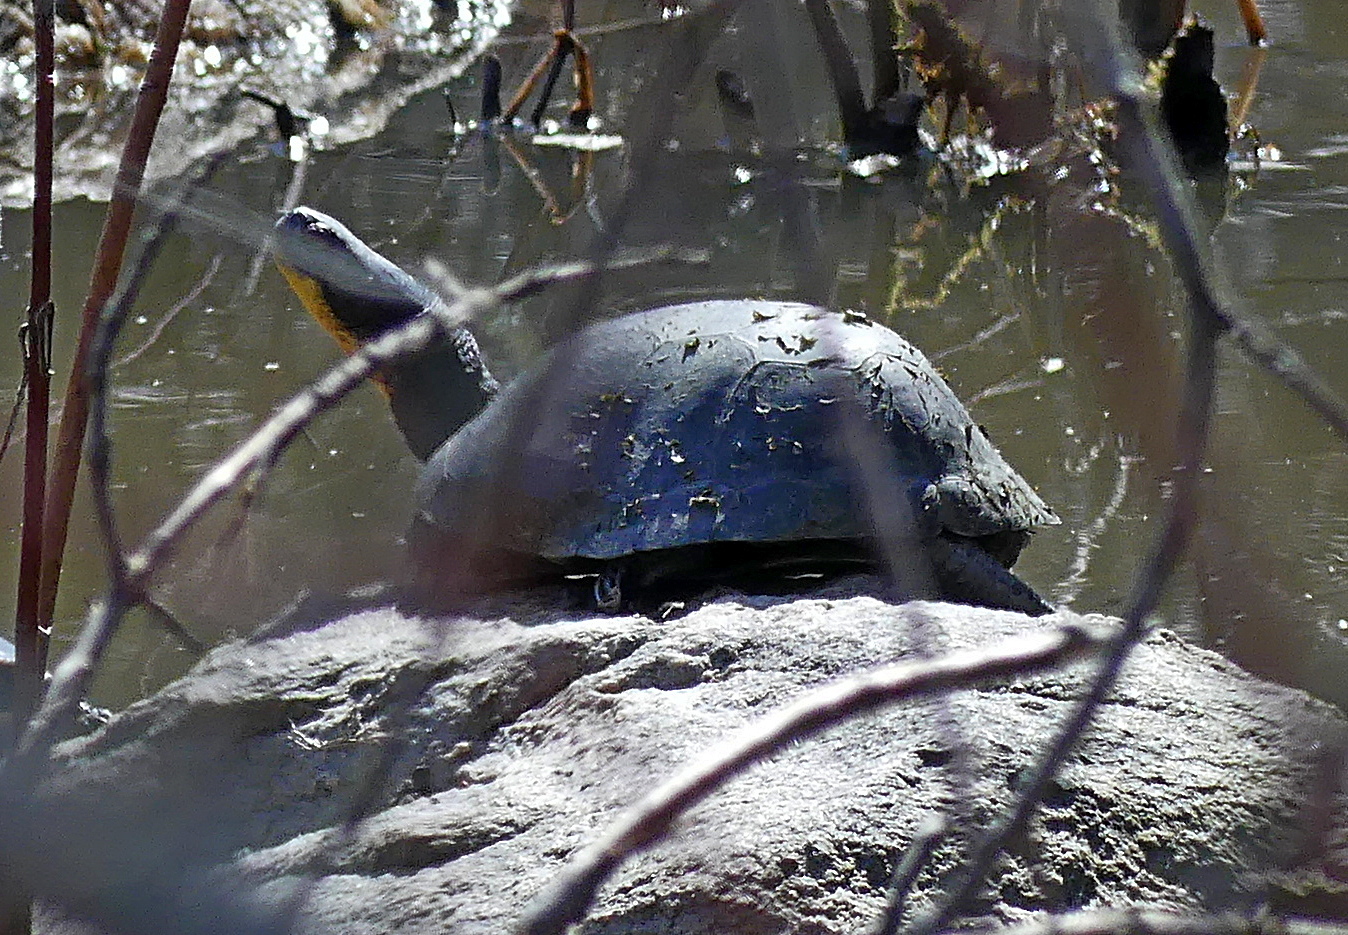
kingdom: Animalia
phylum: Chordata
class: Testudines
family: Emydidae
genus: Emys
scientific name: Emys blandingii
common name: Blanding's turtle
